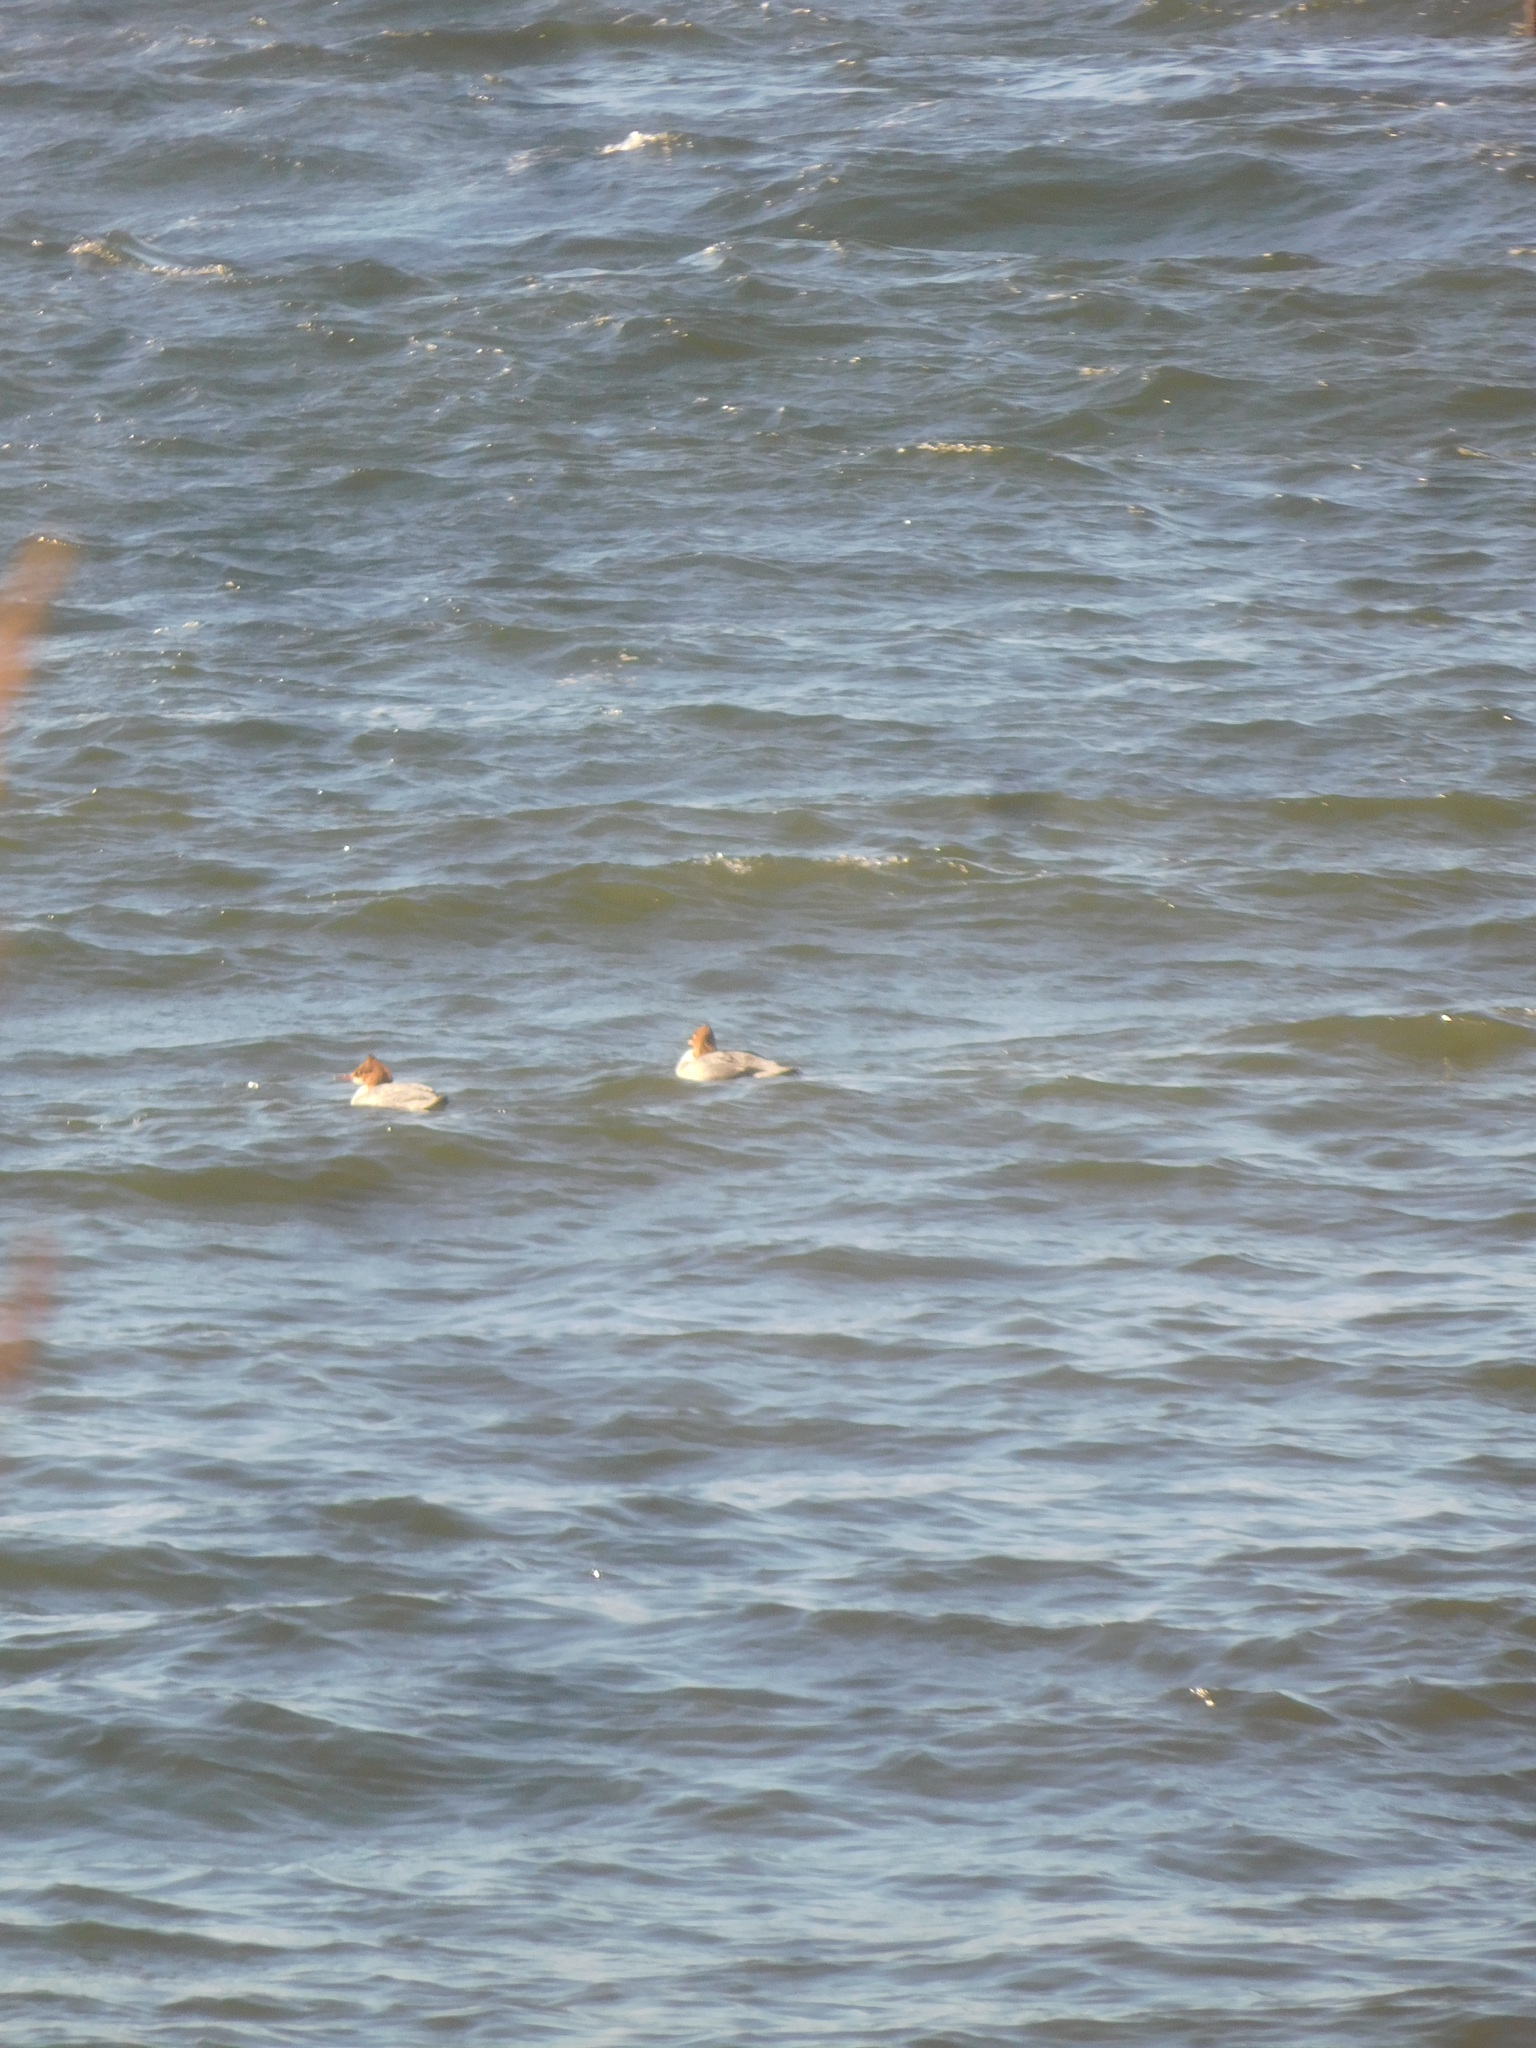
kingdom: Animalia
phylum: Chordata
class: Aves
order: Anseriformes
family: Anatidae
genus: Mergus
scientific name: Mergus merganser
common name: Common merganser
